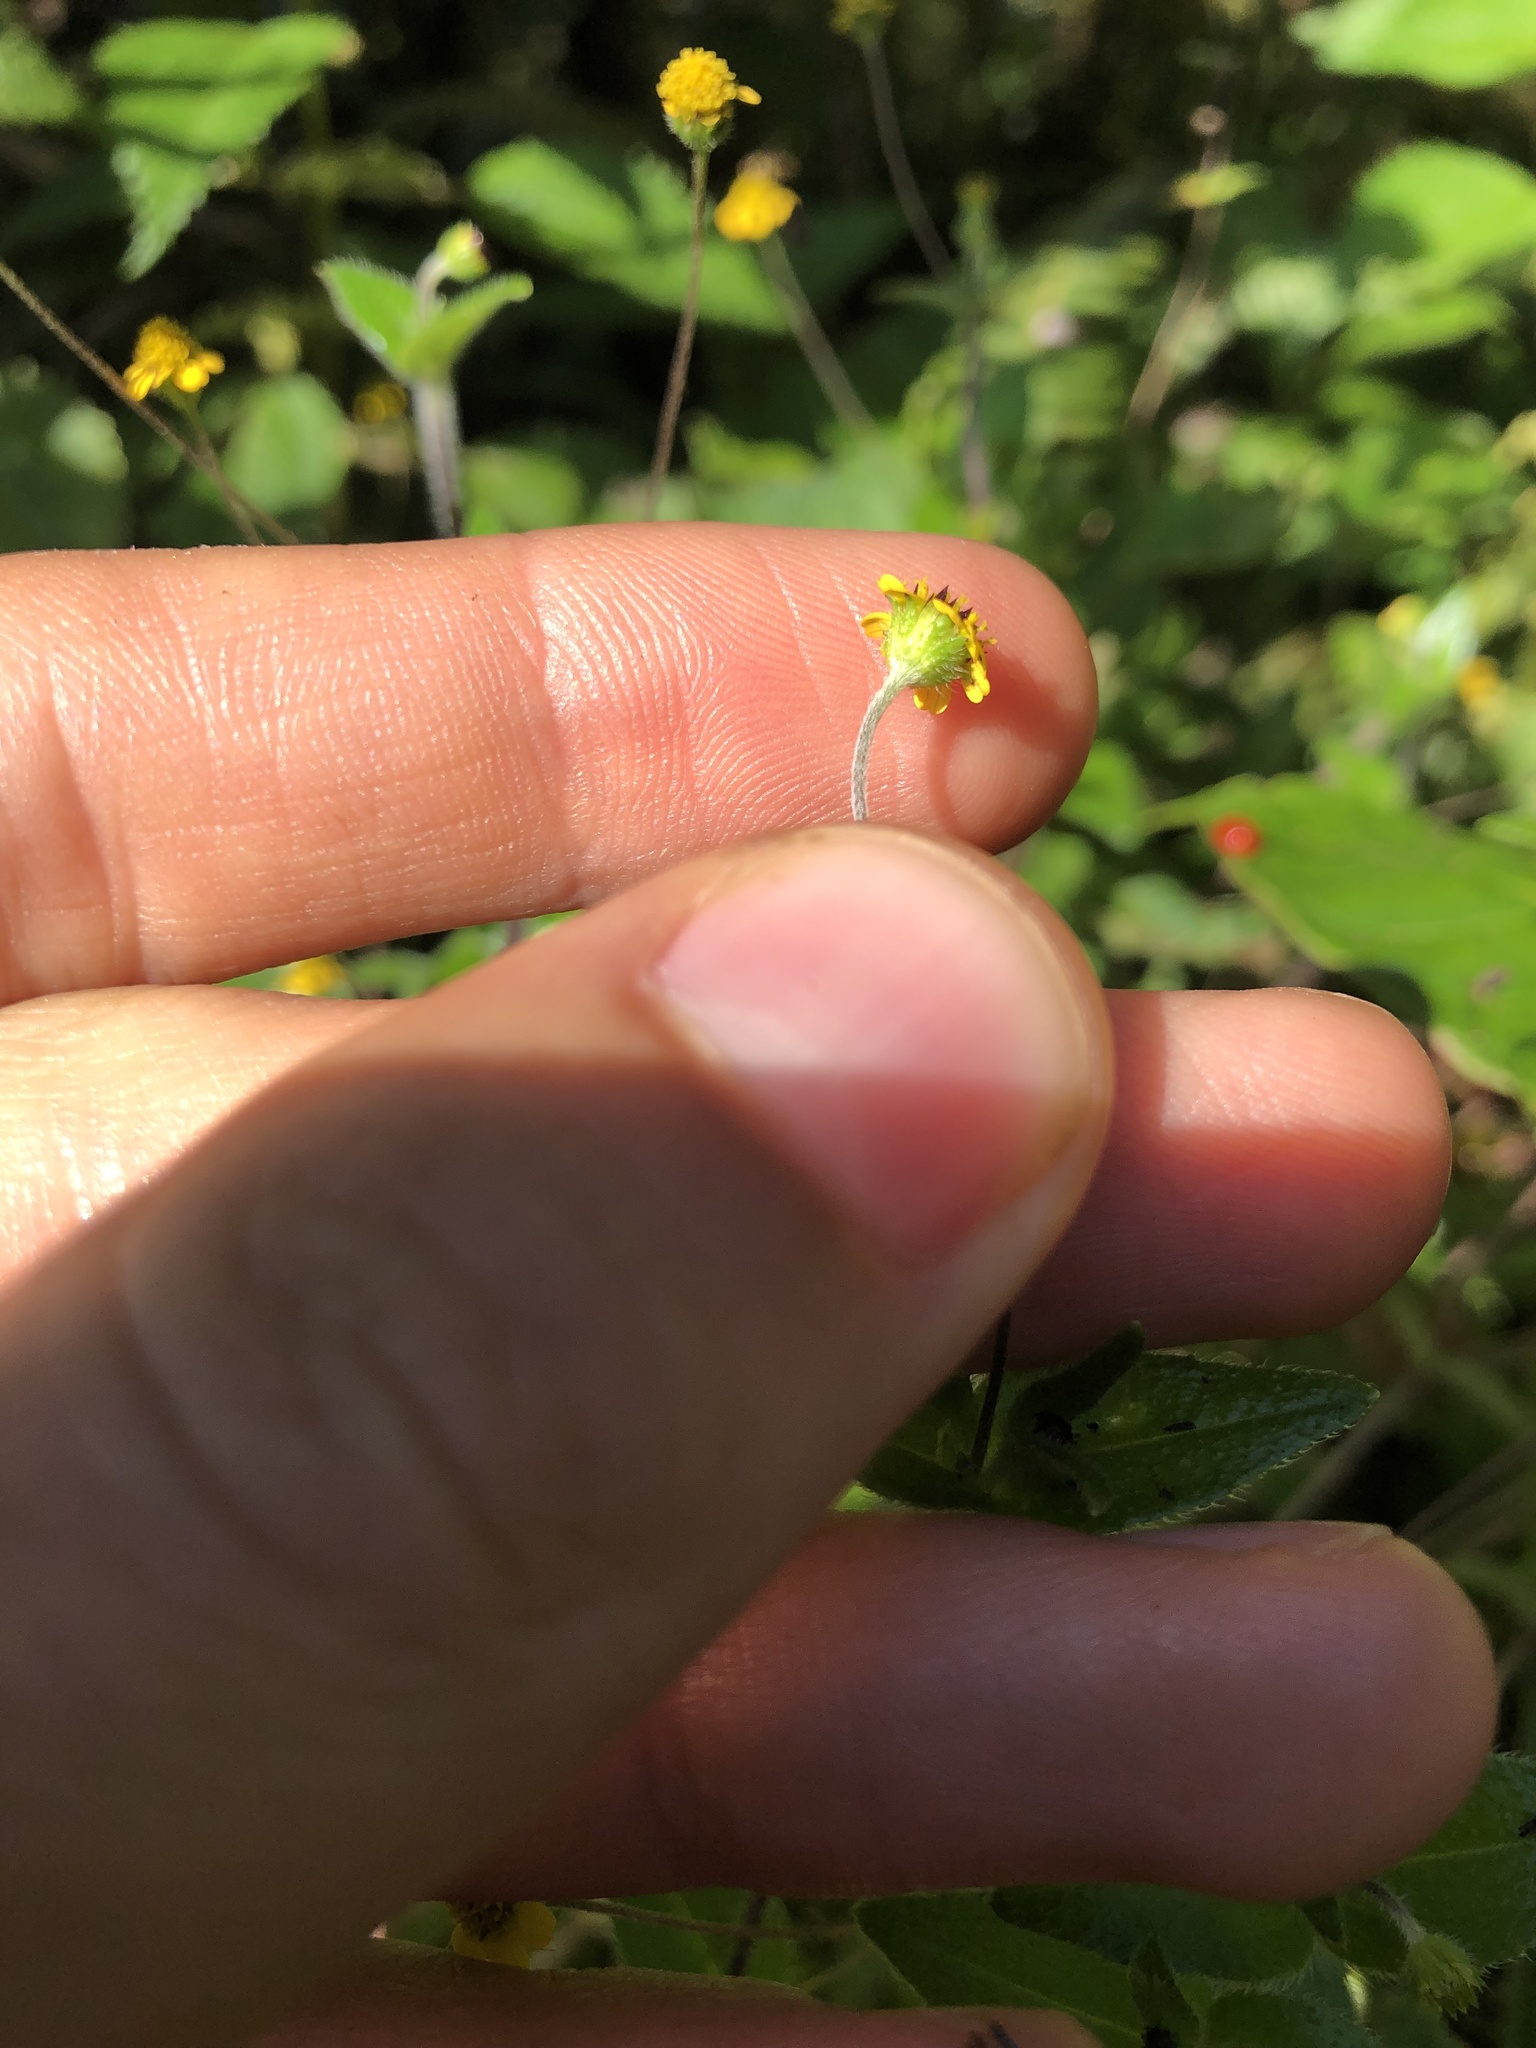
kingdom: Plantae
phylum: Tracheophyta
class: Magnoliopsida
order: Asterales
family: Asteraceae
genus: Jaegeria
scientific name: Jaegeria gracilis
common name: Galapagos jaegeria
